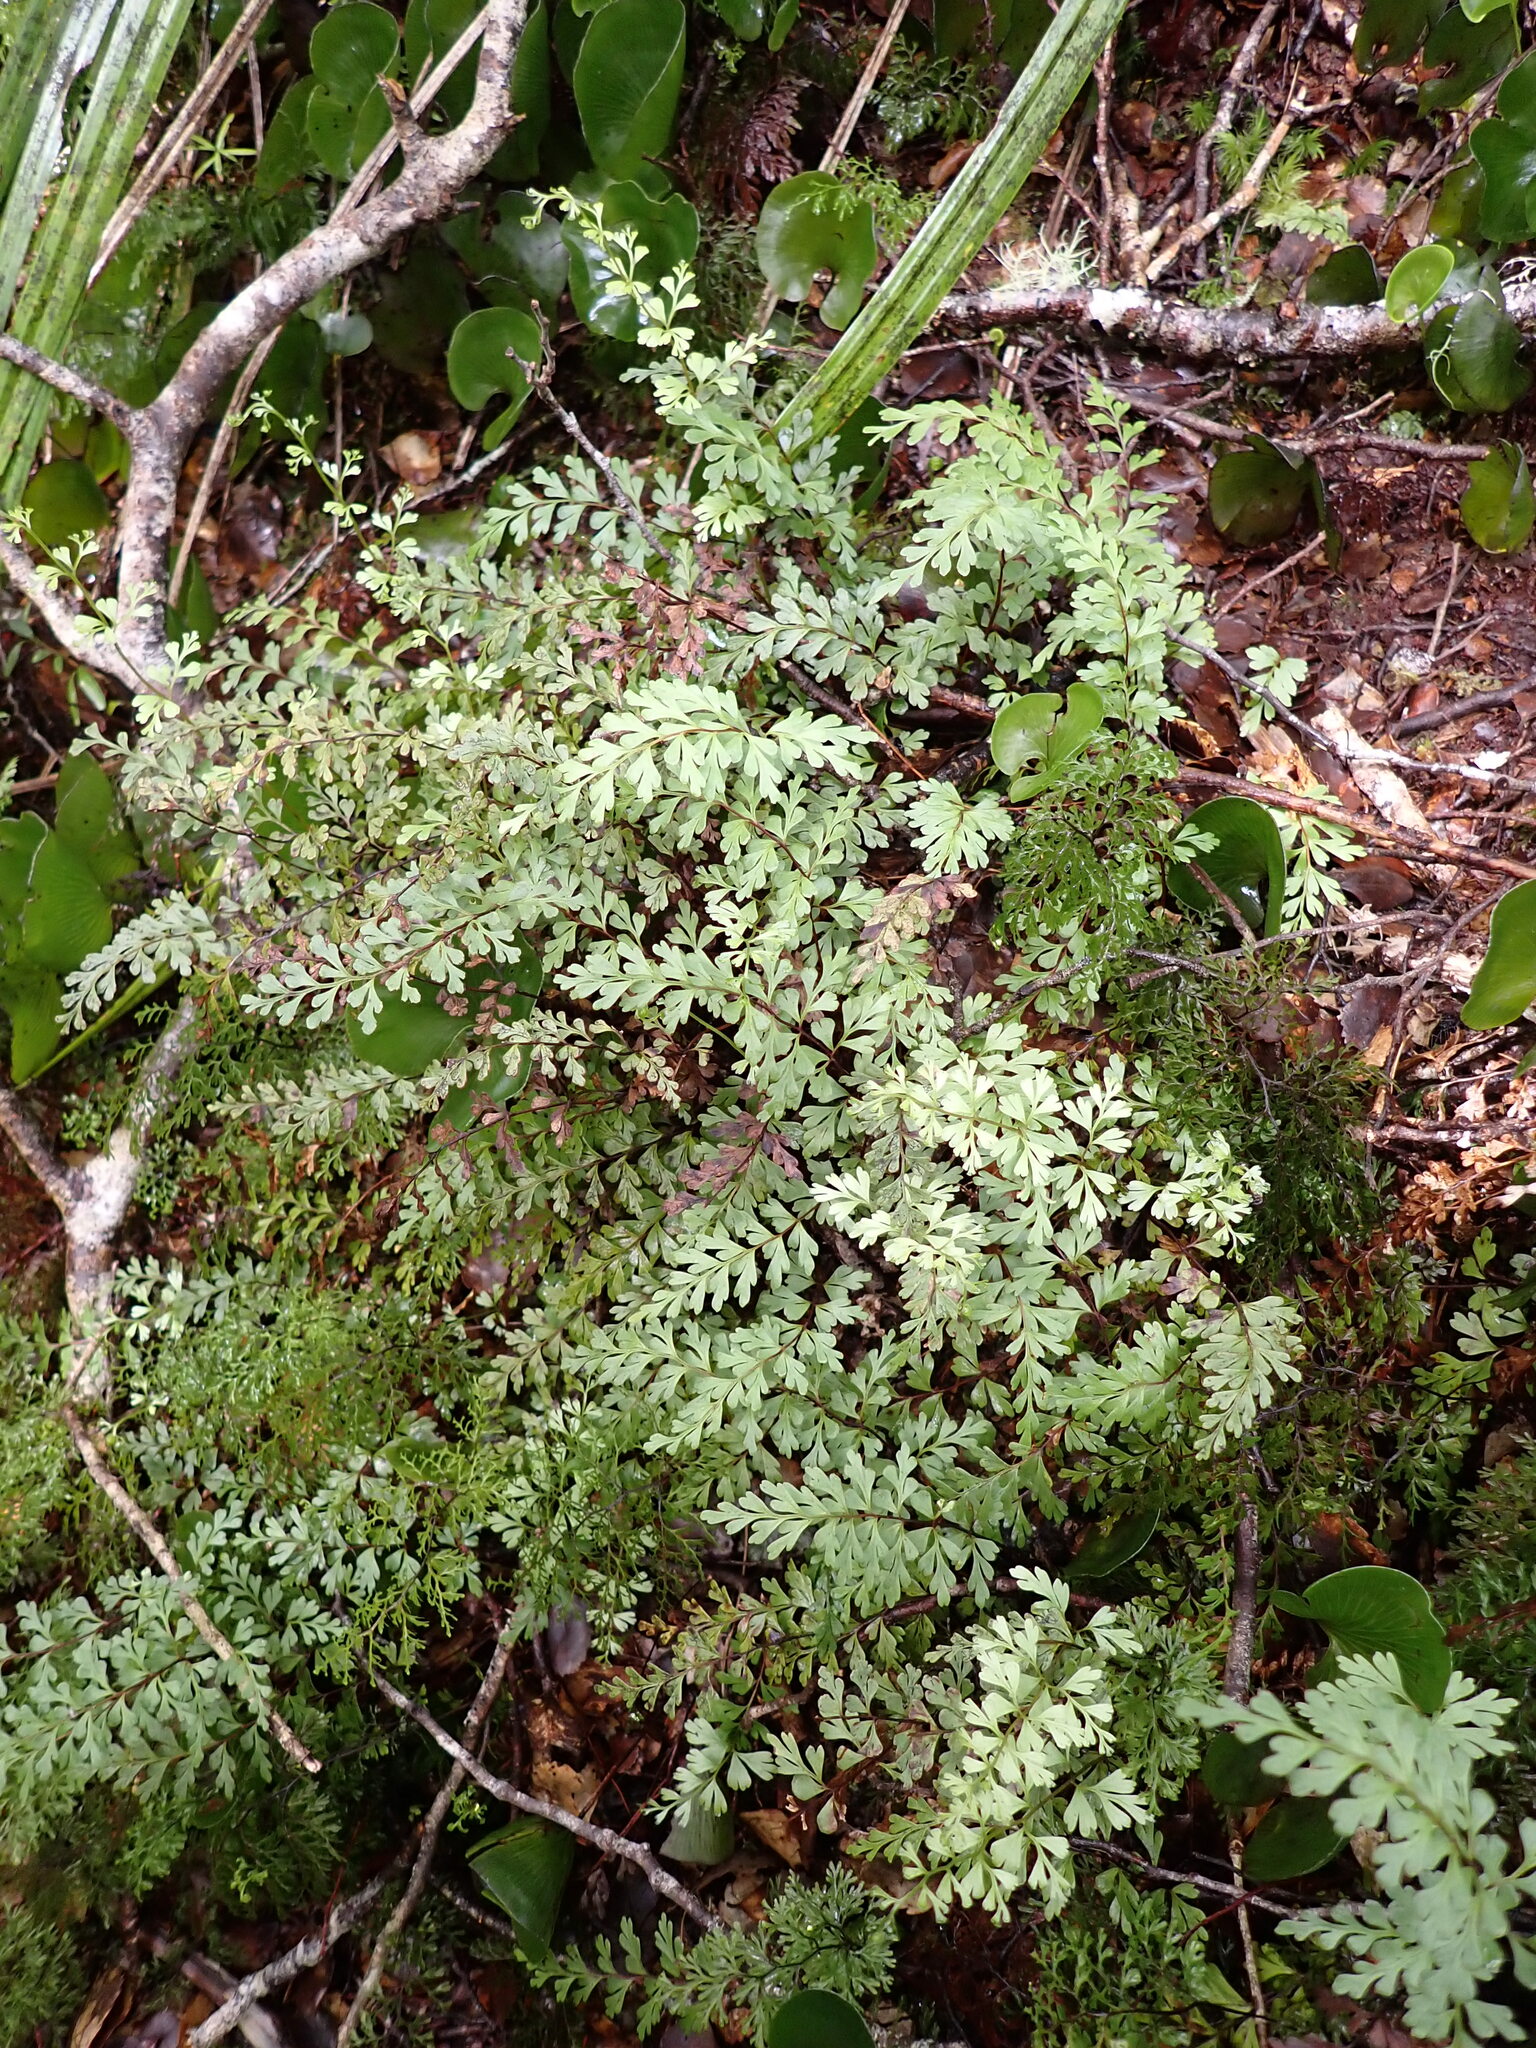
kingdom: Plantae
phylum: Tracheophyta
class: Polypodiopsida
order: Polypodiales
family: Lindsaeaceae
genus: Lindsaea
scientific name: Lindsaea trichomanoides
